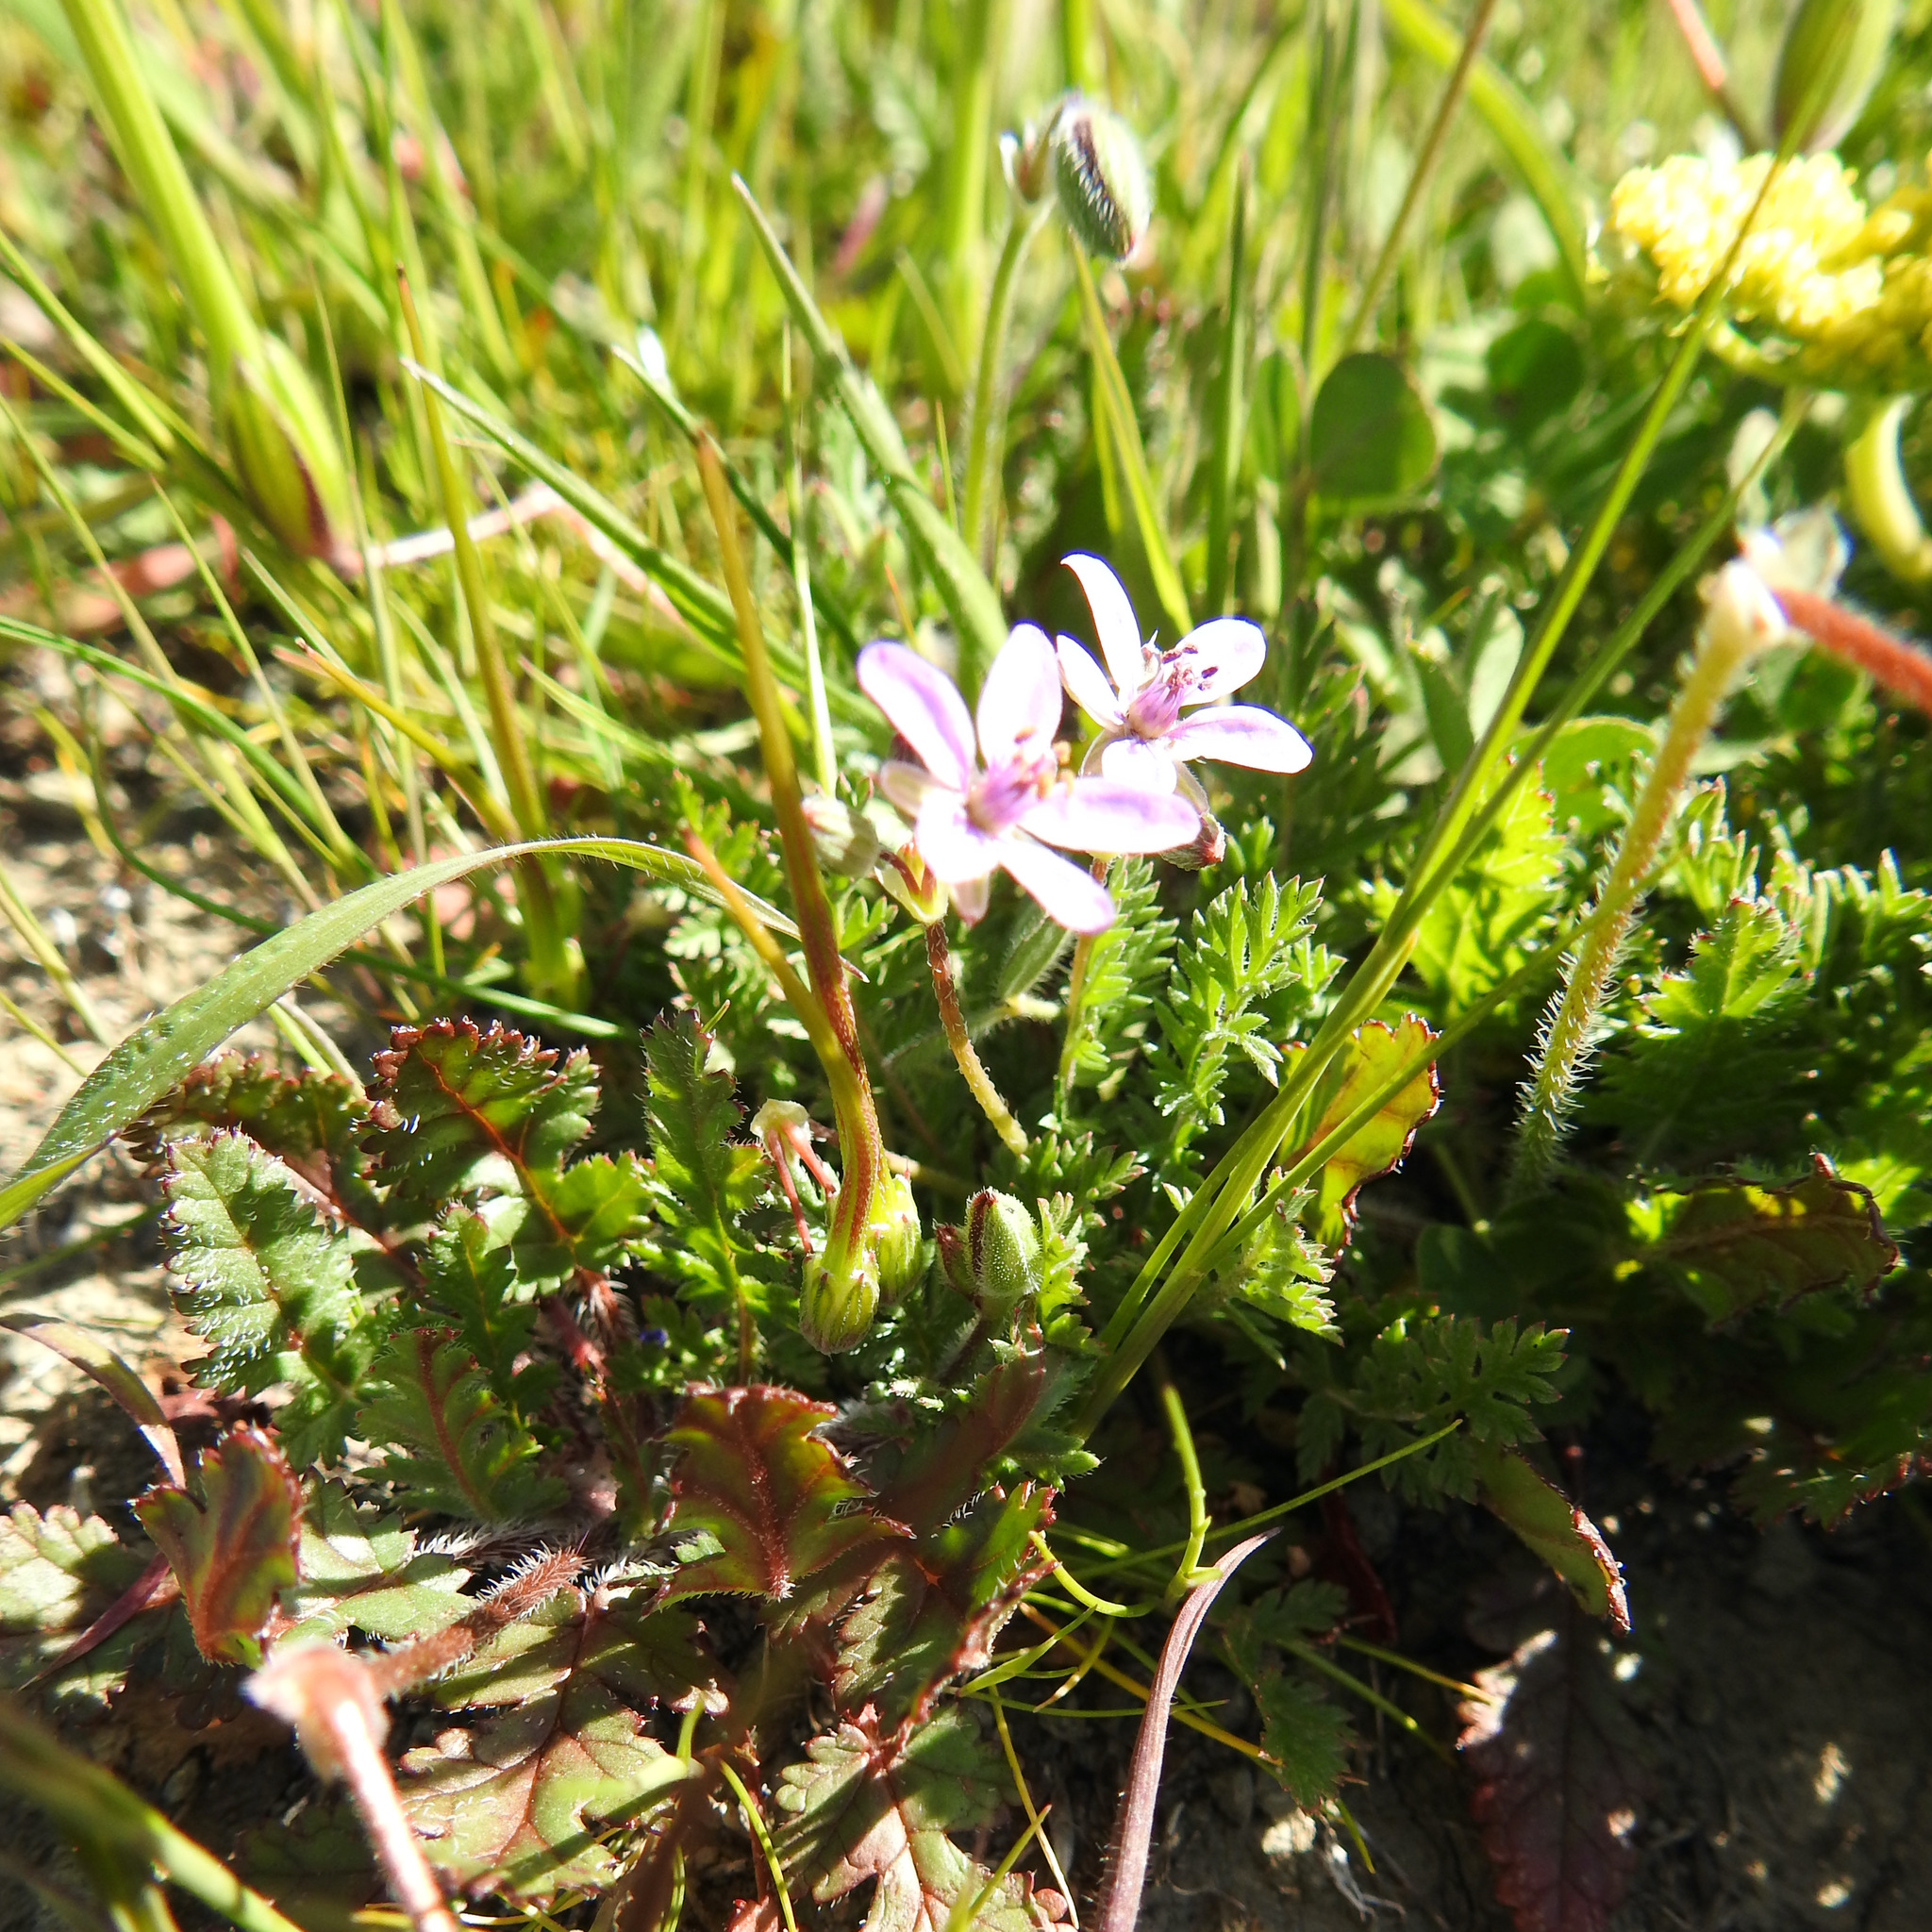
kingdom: Plantae
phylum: Tracheophyta
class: Magnoliopsida
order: Geraniales
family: Geraniaceae
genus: Erodium
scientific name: Erodium cicutarium
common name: Common stork's-bill
